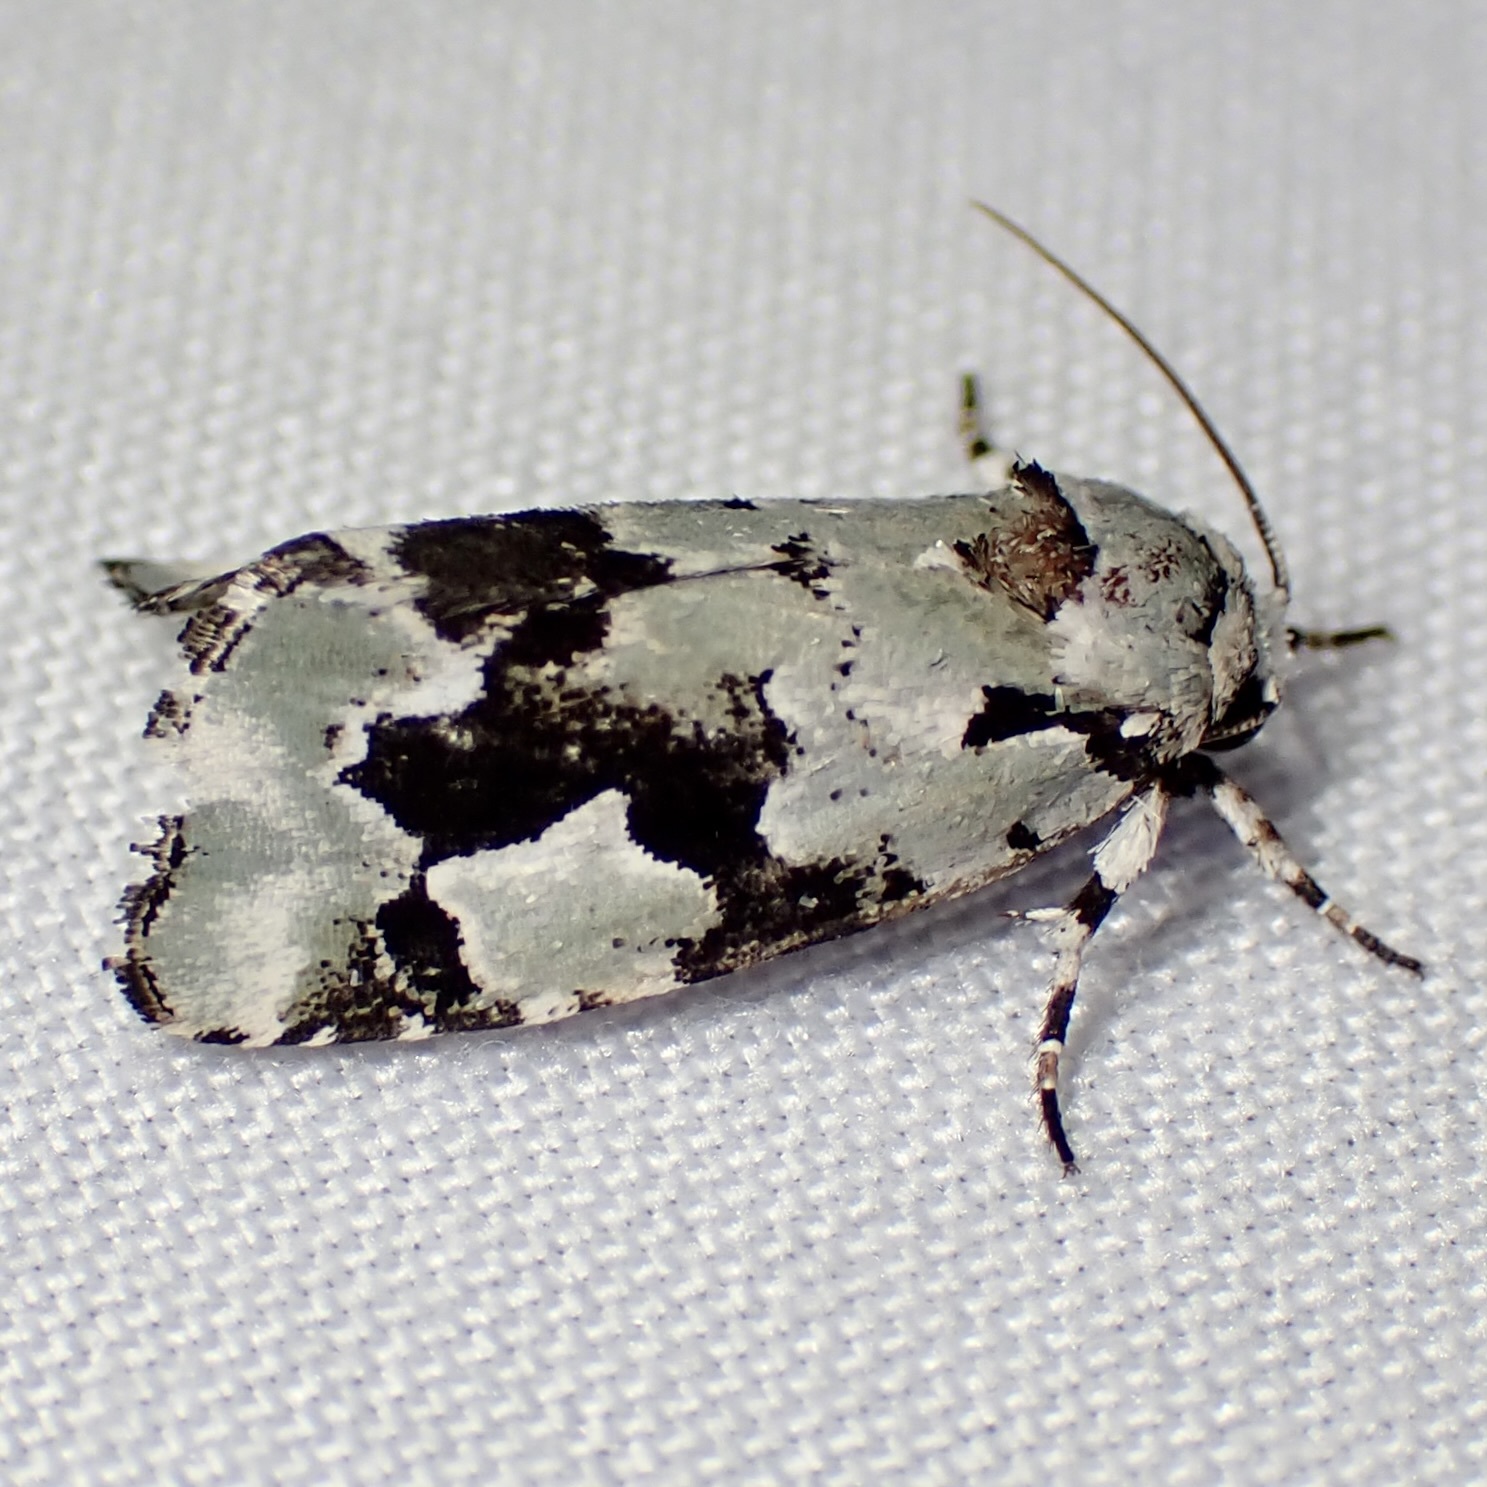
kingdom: Animalia
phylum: Arthropoda
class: Insecta
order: Lepidoptera
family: Noctuidae
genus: Emarginea
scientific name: Emarginea percara
